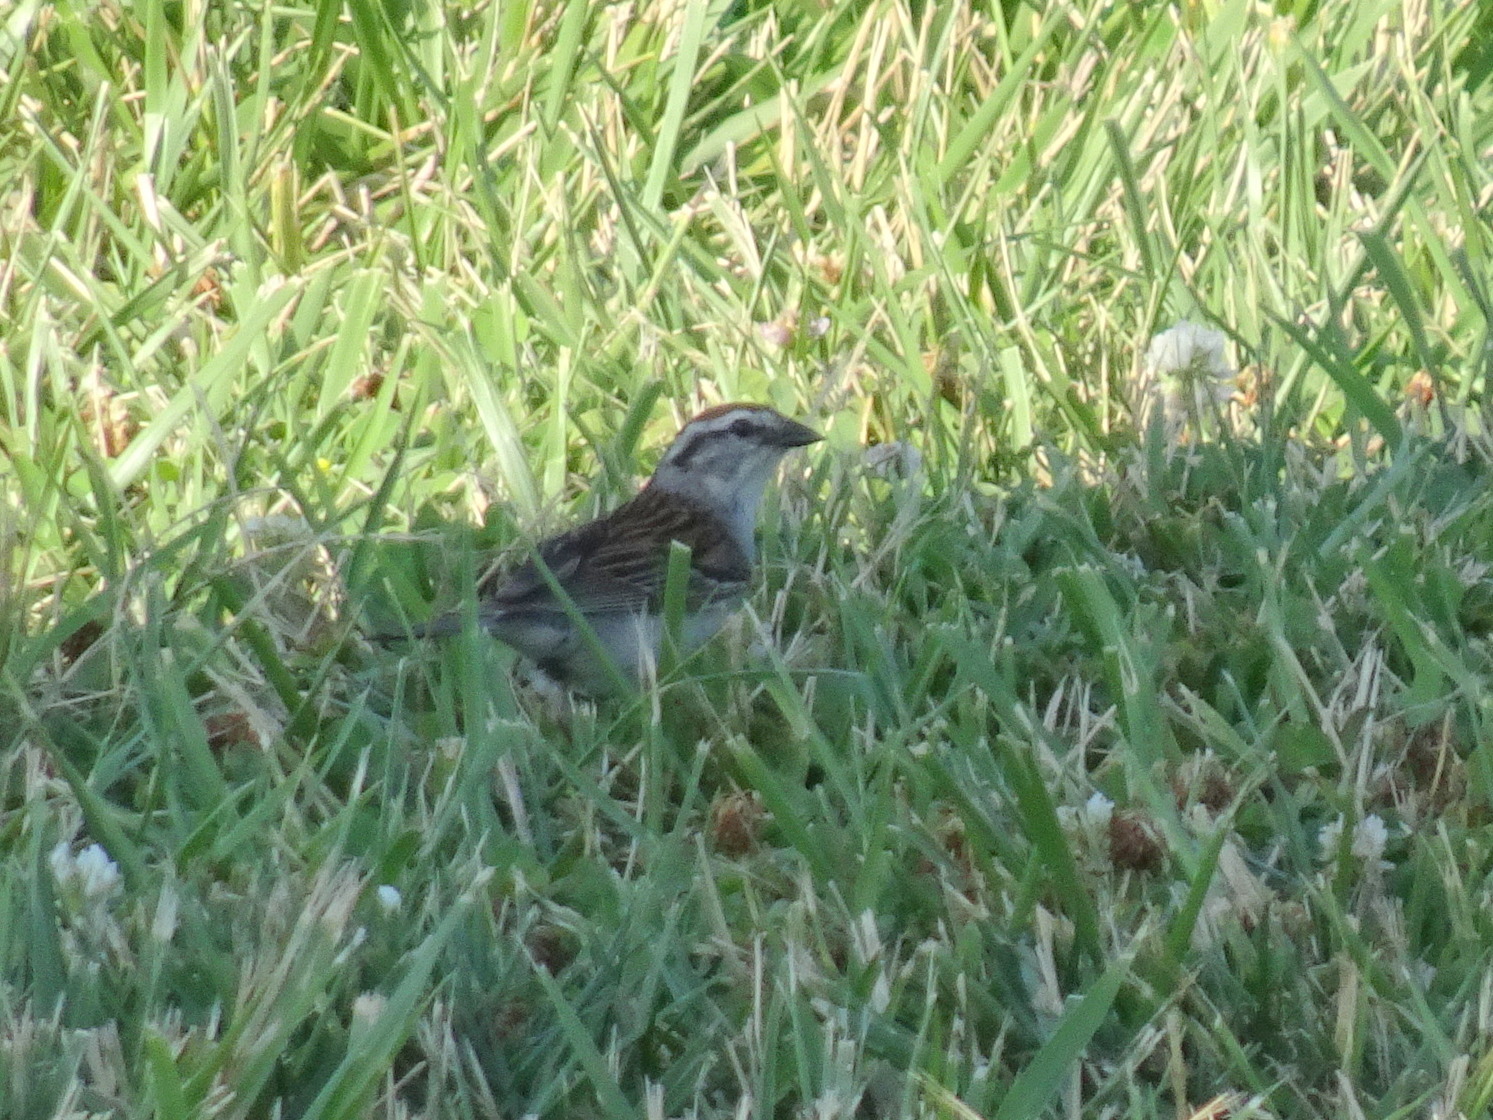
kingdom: Animalia
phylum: Chordata
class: Aves
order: Passeriformes
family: Passerellidae
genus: Spizella
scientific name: Spizella passerina
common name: Chipping sparrow
